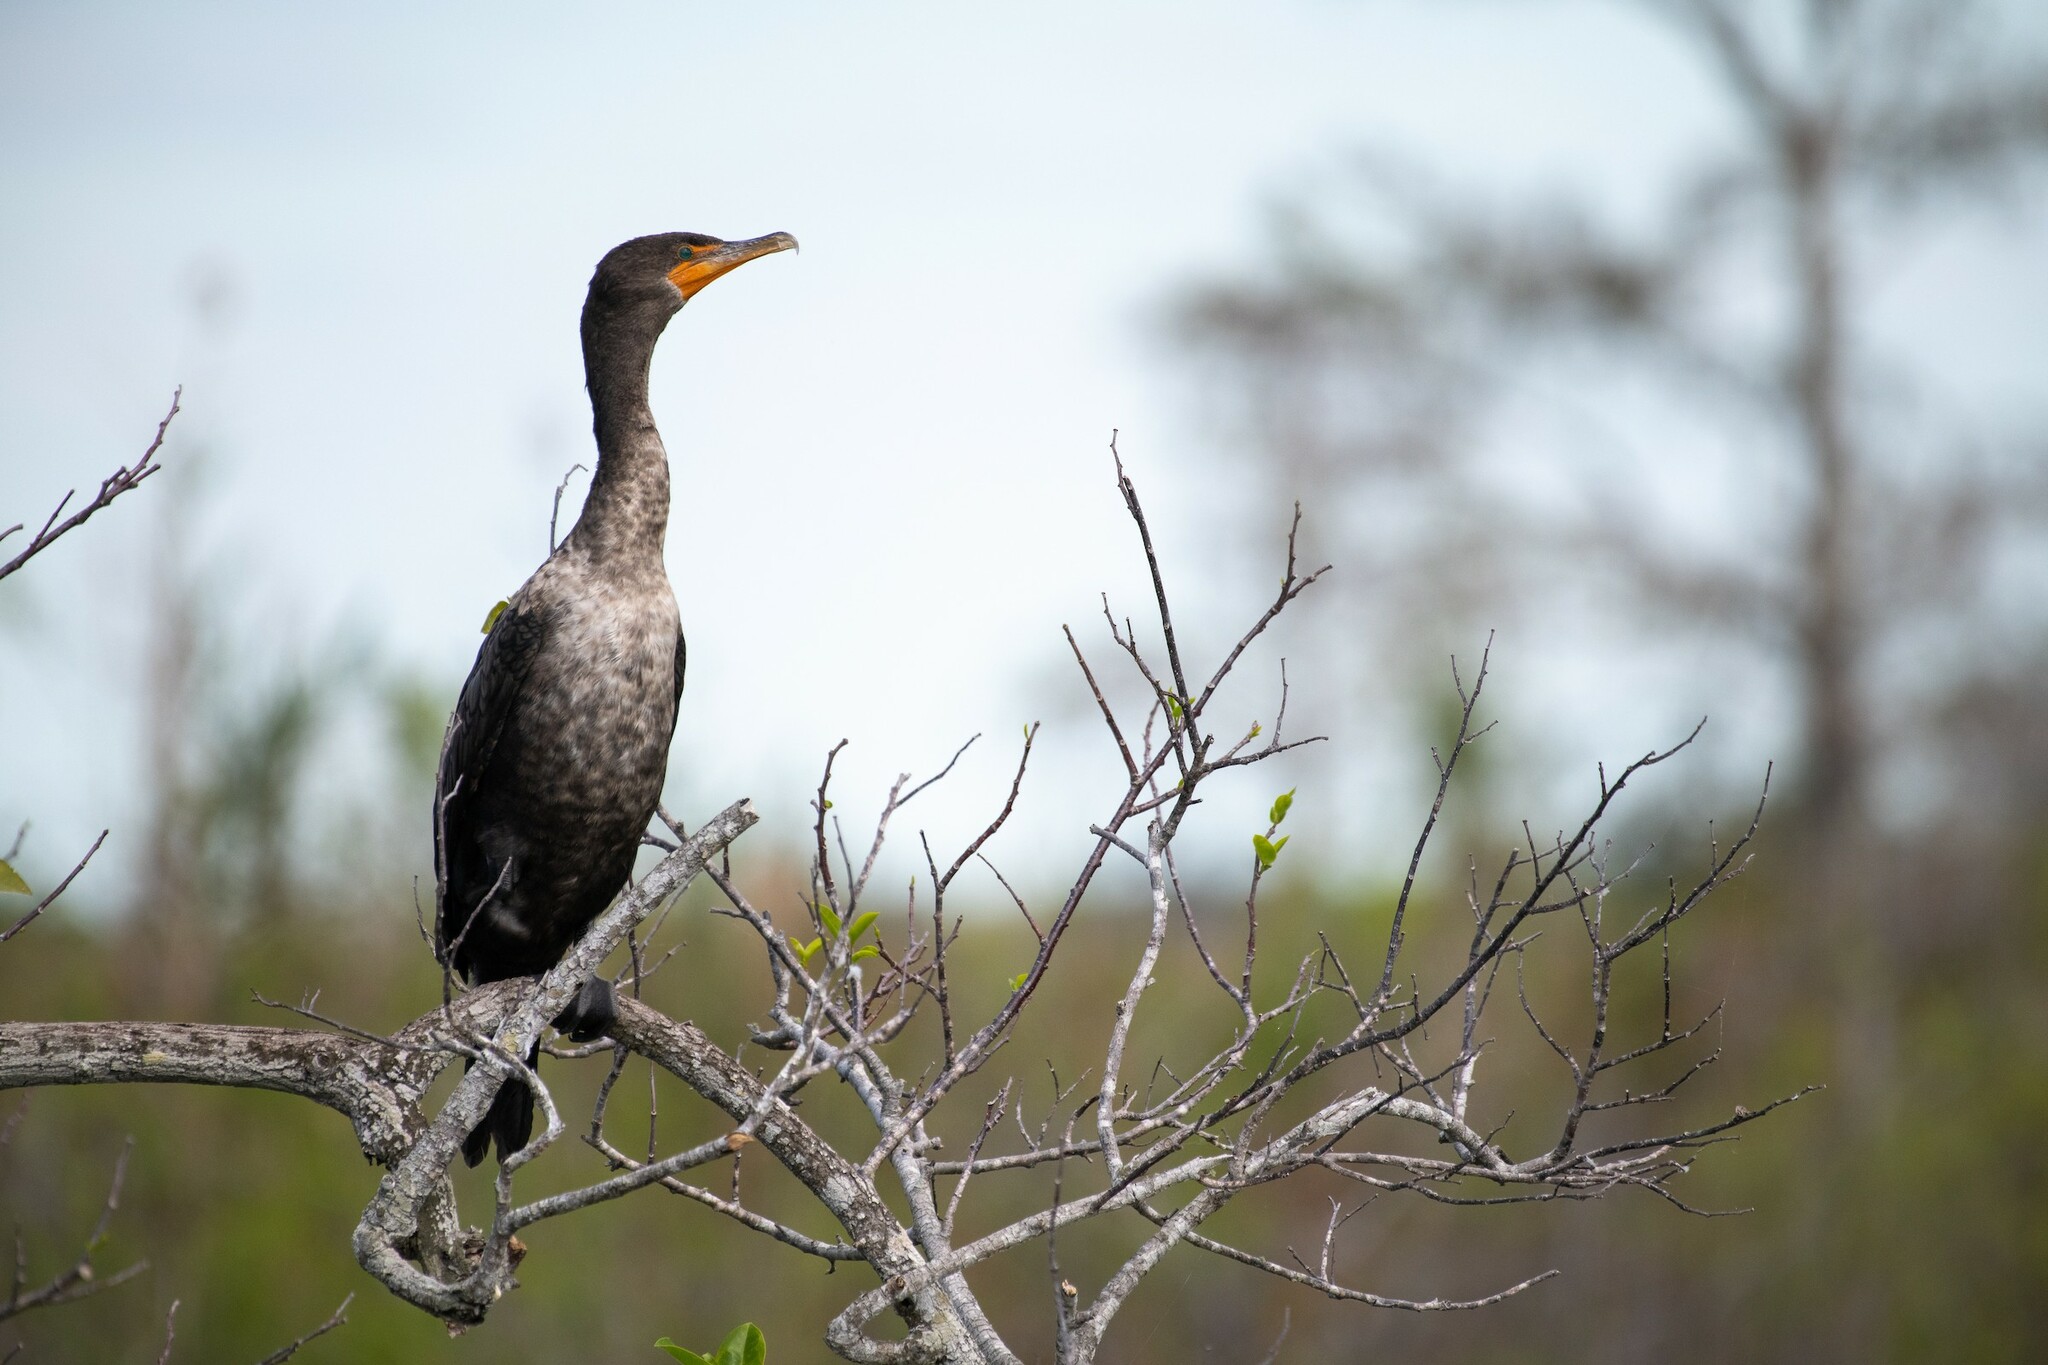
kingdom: Animalia
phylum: Chordata
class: Aves
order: Suliformes
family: Phalacrocoracidae
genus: Phalacrocorax
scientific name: Phalacrocorax auritus
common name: Double-crested cormorant
